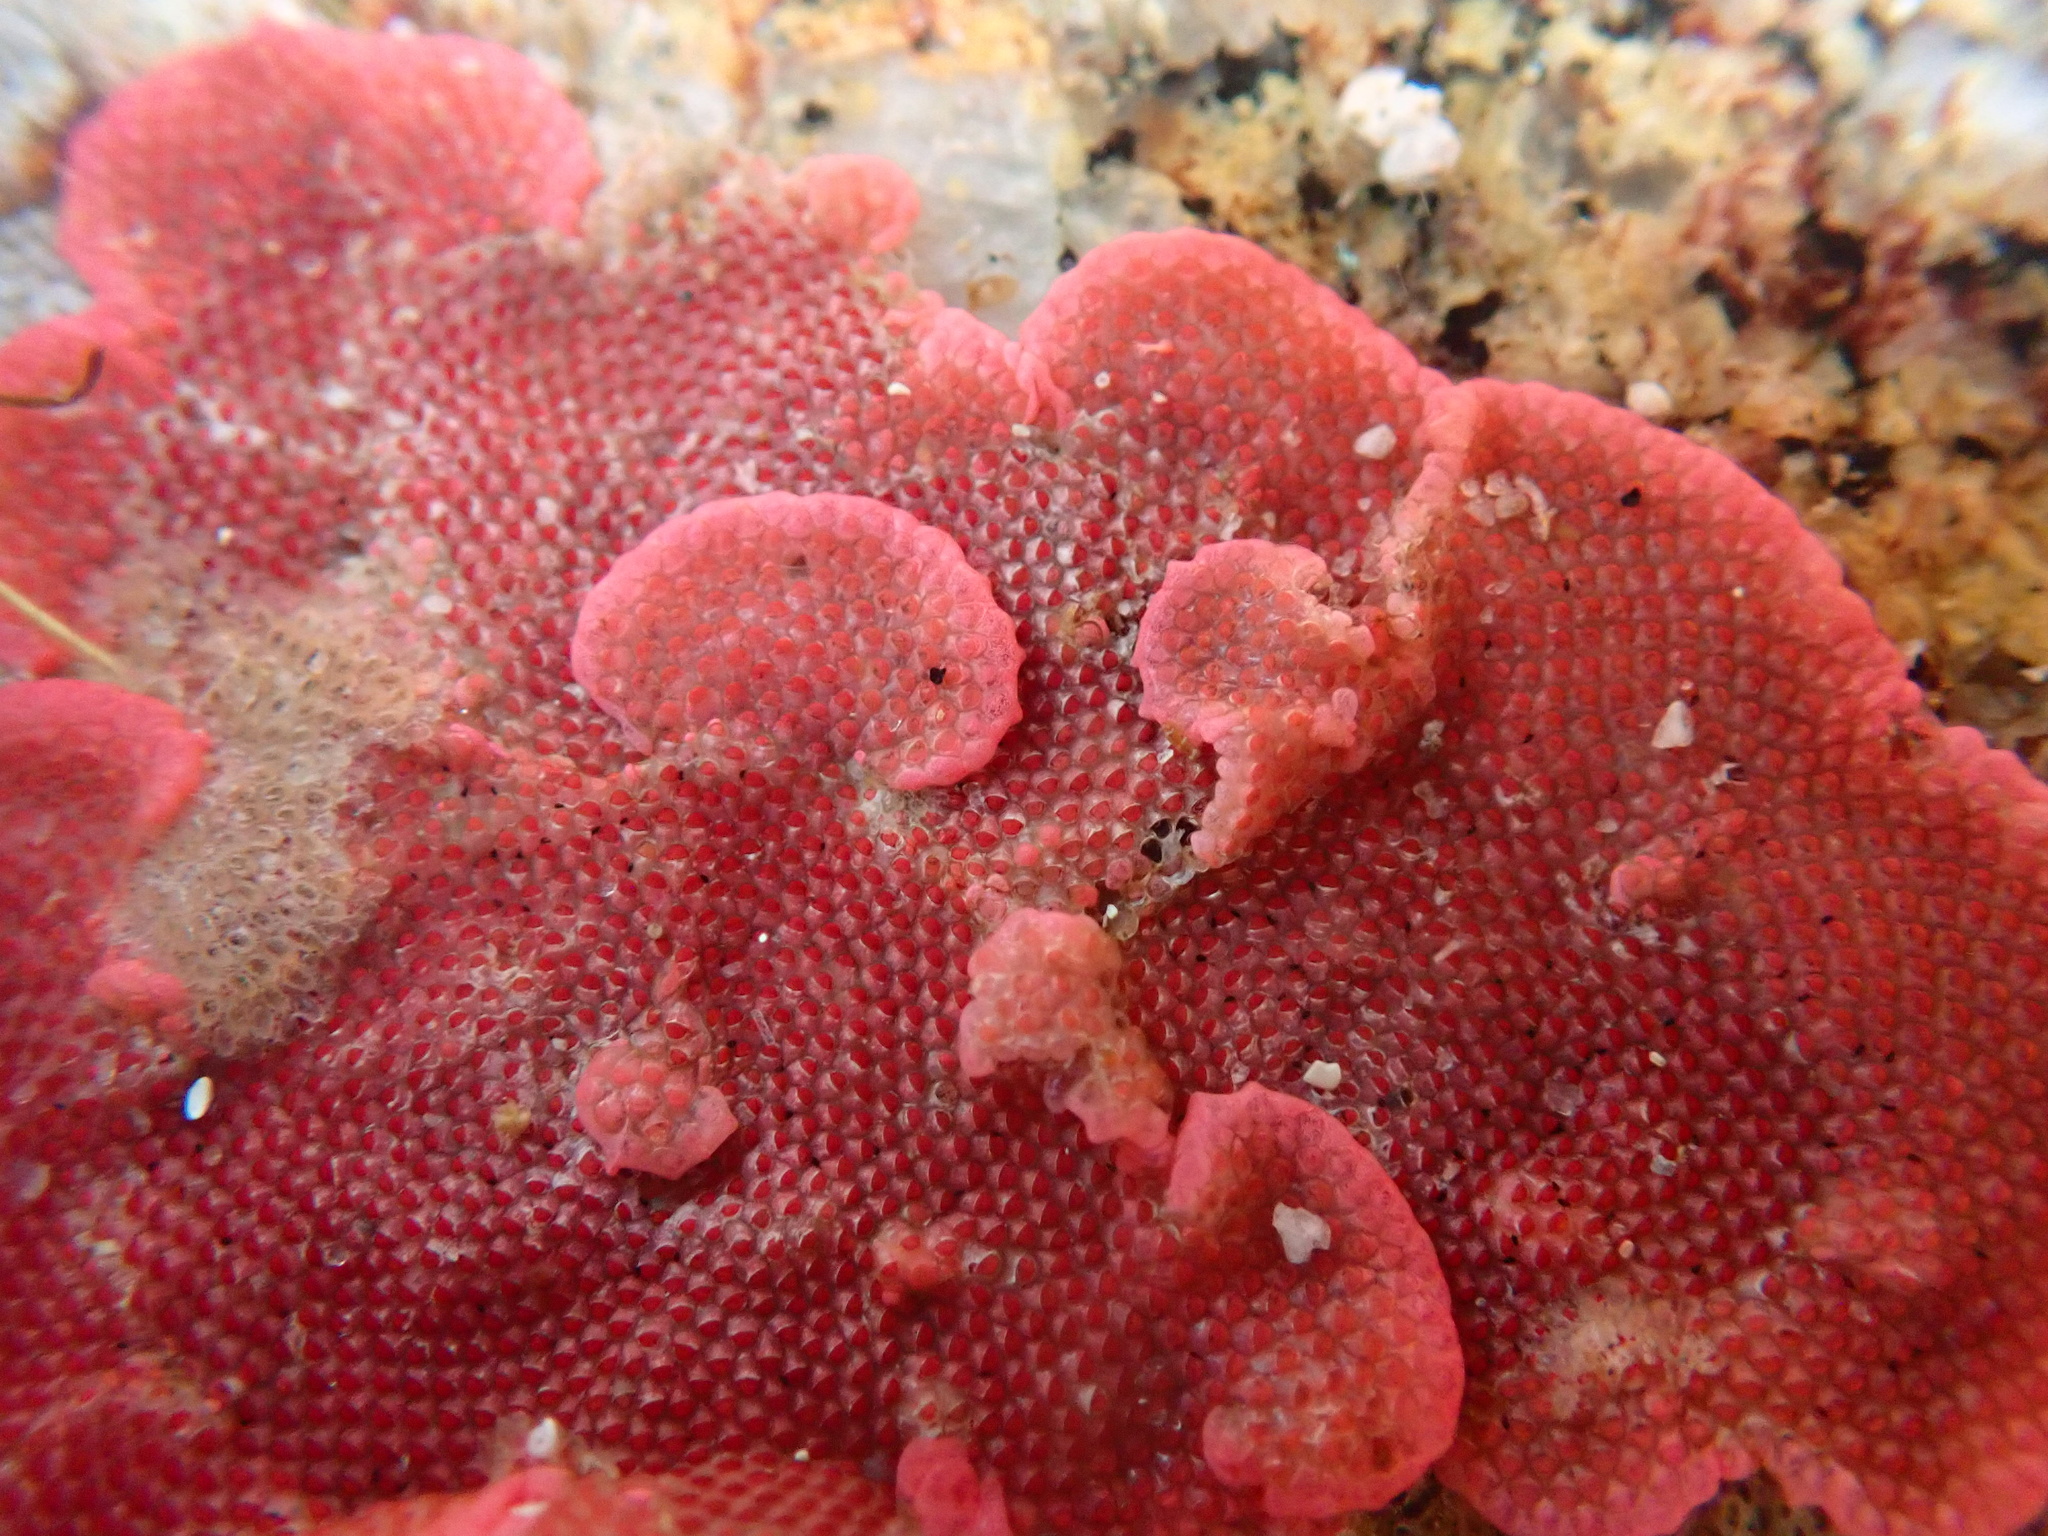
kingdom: Animalia
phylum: Bryozoa
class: Gymnolaemata
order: Cheilostomatida
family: Eurystomellidae
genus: Integripelta
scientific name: Integripelta bilabiata
